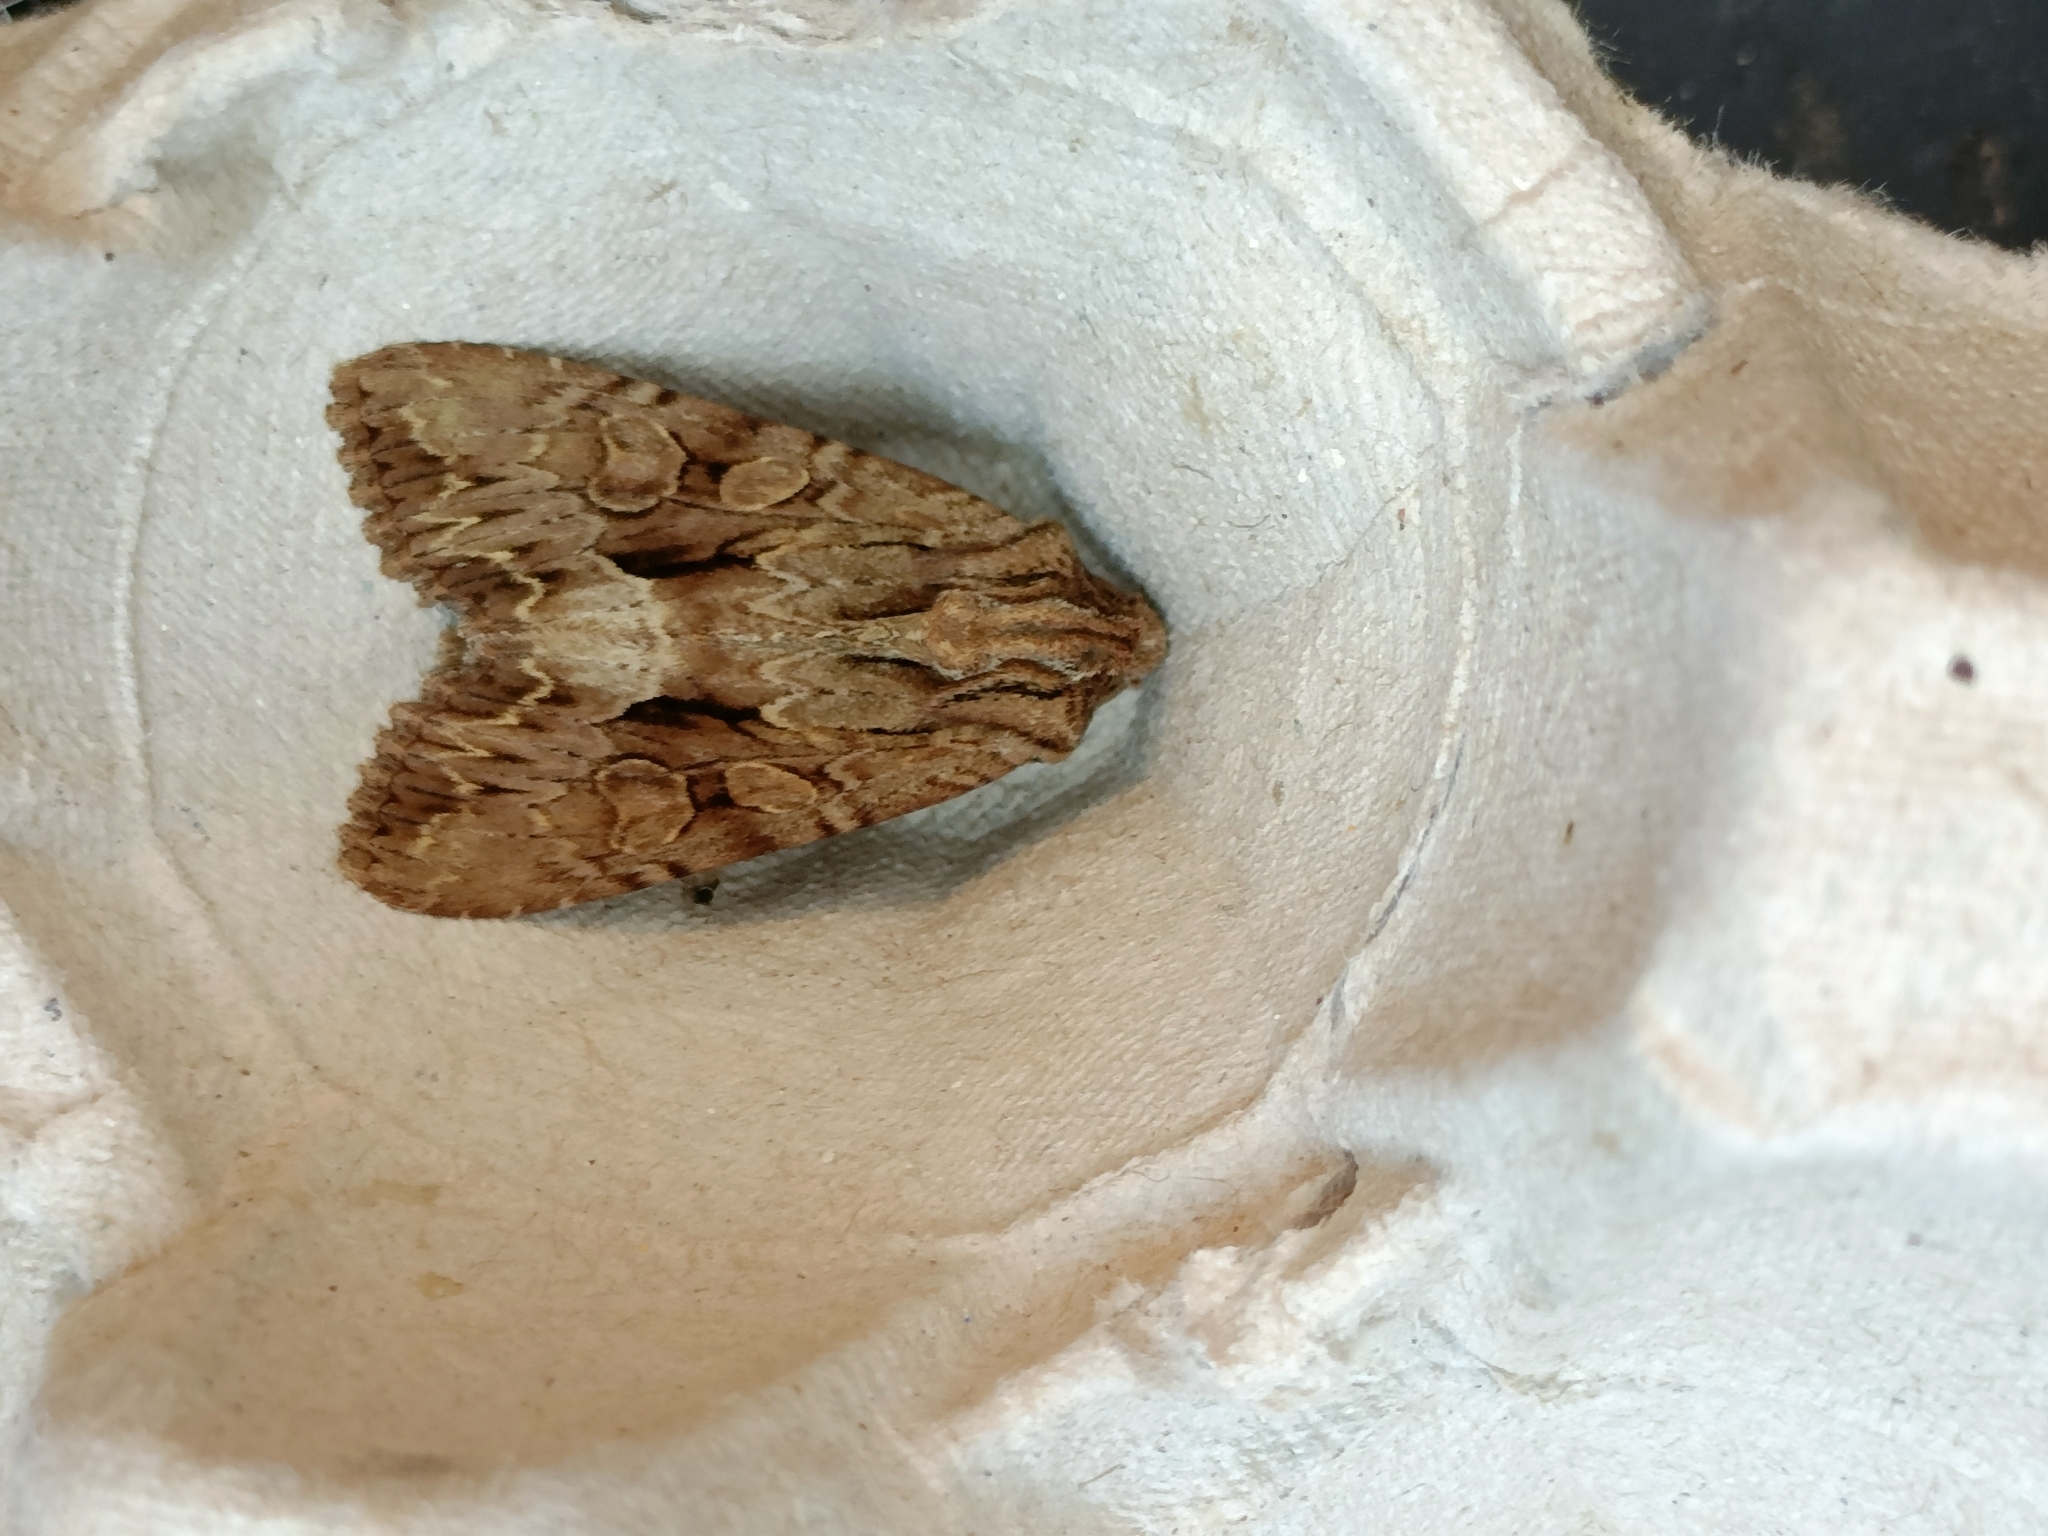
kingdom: Animalia
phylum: Arthropoda
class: Insecta
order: Lepidoptera
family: Noctuidae
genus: Apamea
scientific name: Apamea monoglypha
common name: Dark arches
